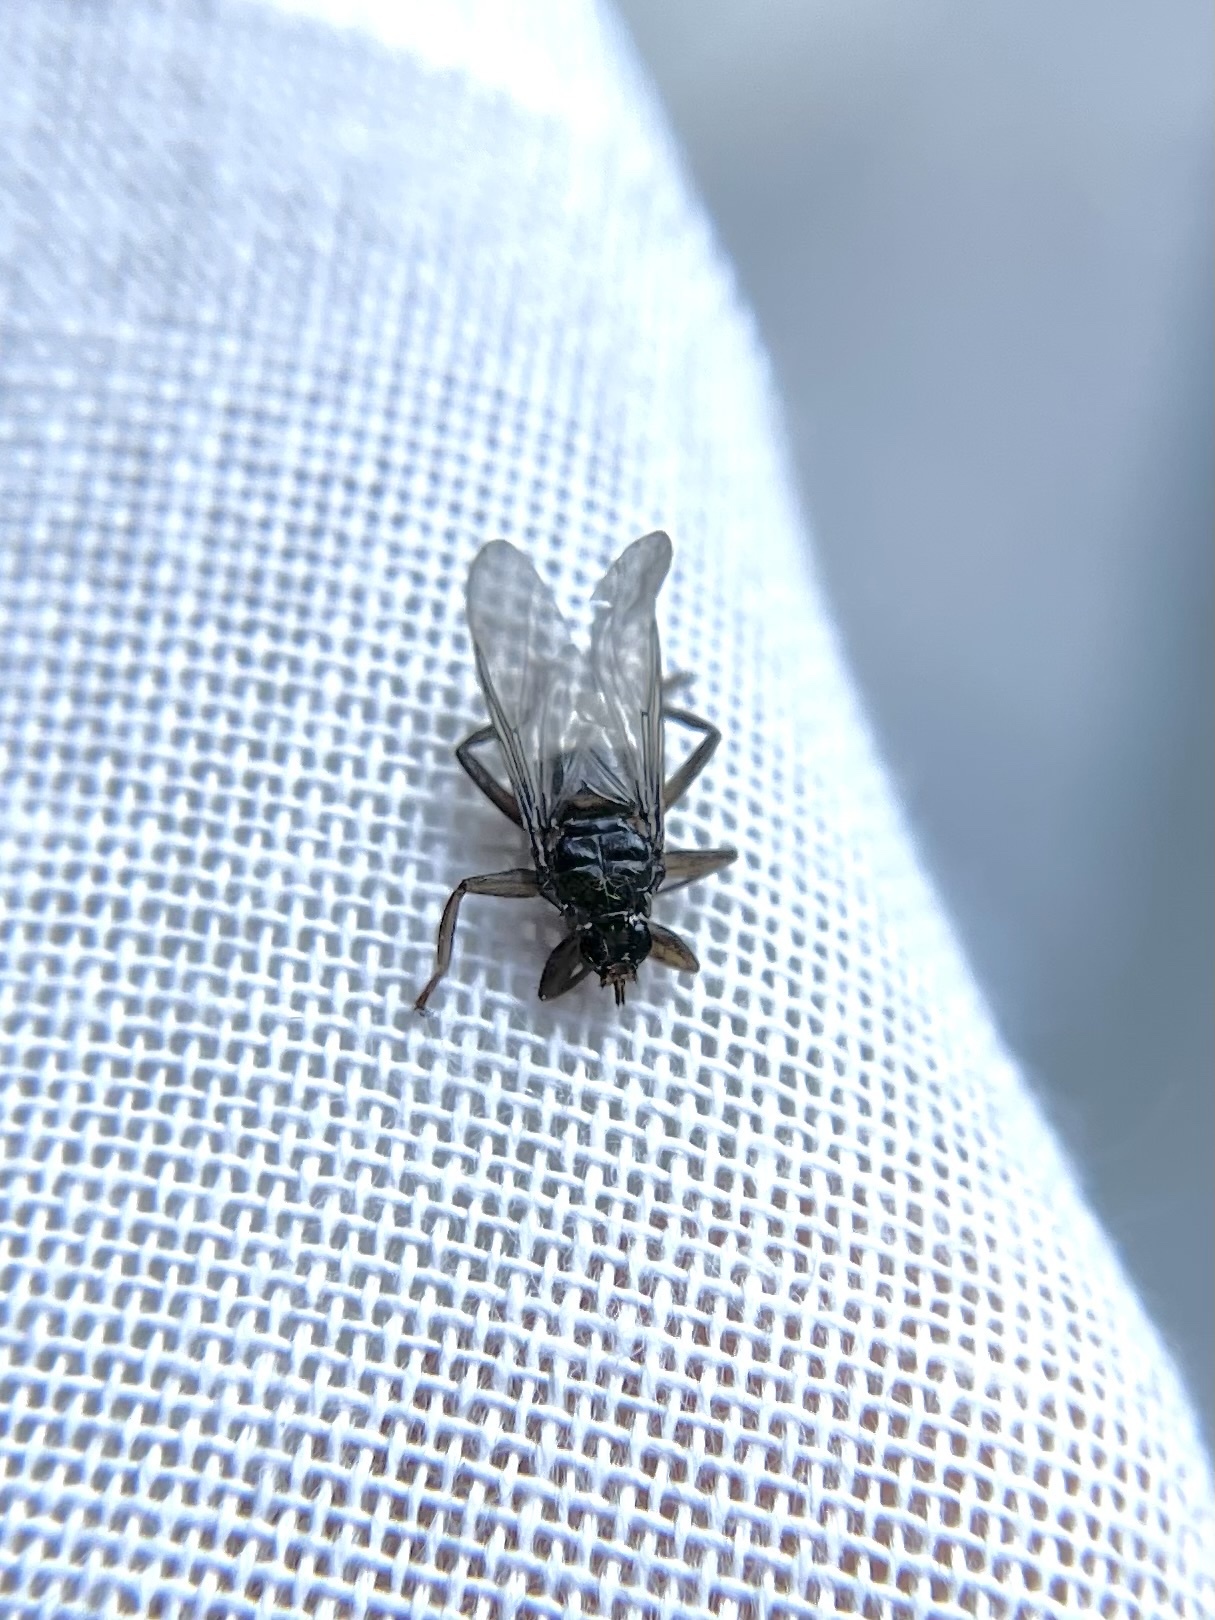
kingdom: Animalia
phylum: Arthropoda
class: Insecta
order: Diptera
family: Hippoboscidae
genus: Pseudolynchia
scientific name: Pseudolynchia canariensis
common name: Louse fly
